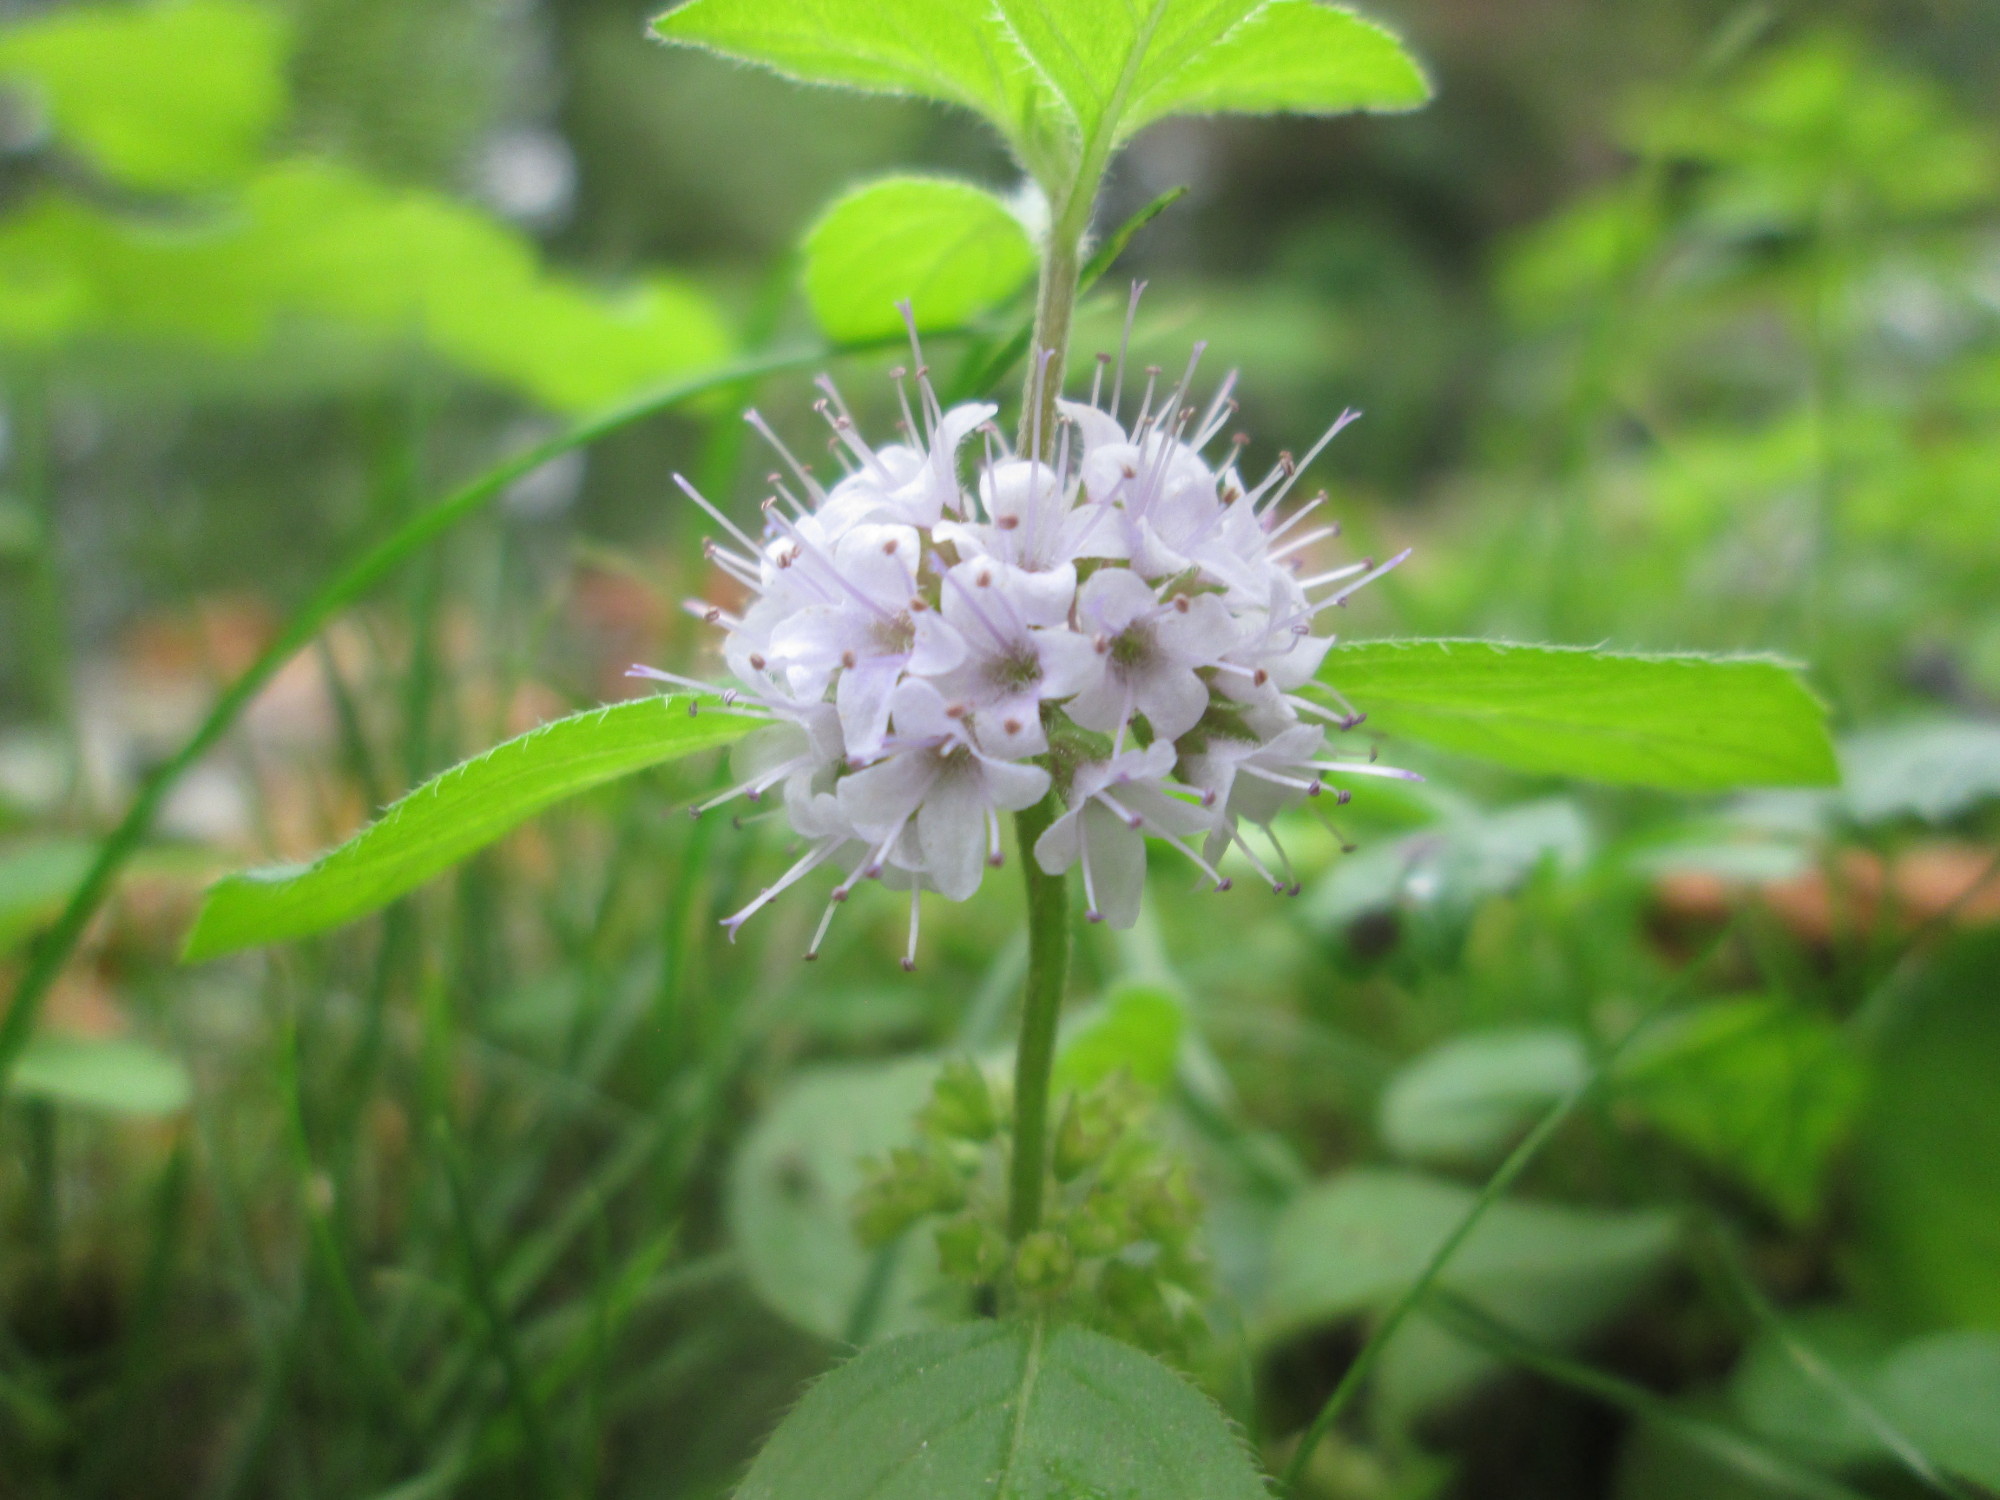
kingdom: Plantae
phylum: Tracheophyta
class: Magnoliopsida
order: Lamiales
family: Lamiaceae
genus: Mentha
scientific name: Mentha aquatica
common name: Water mint
